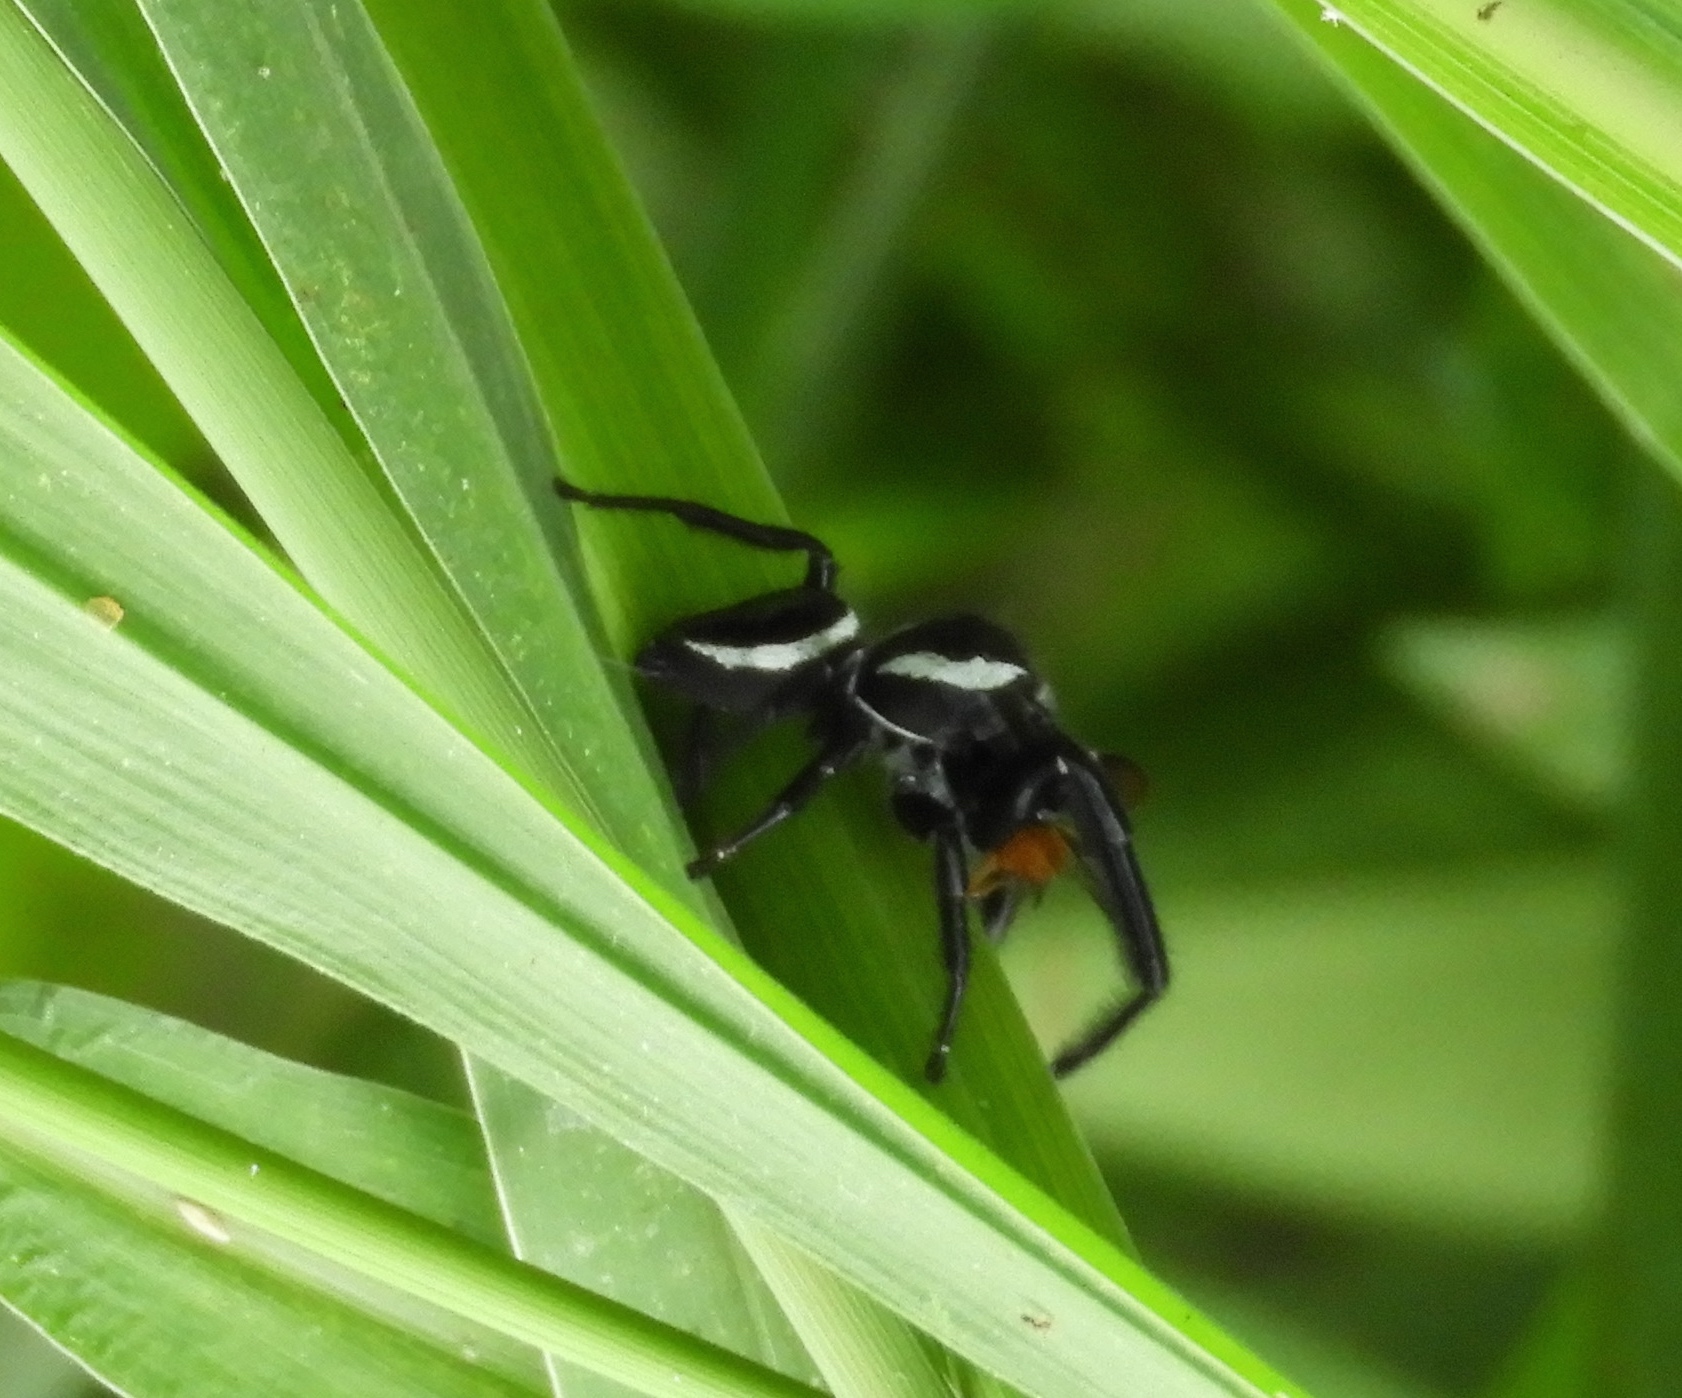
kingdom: Animalia
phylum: Arthropoda
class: Arachnida
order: Araneae
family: Salticidae
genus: Messua
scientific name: Messua
